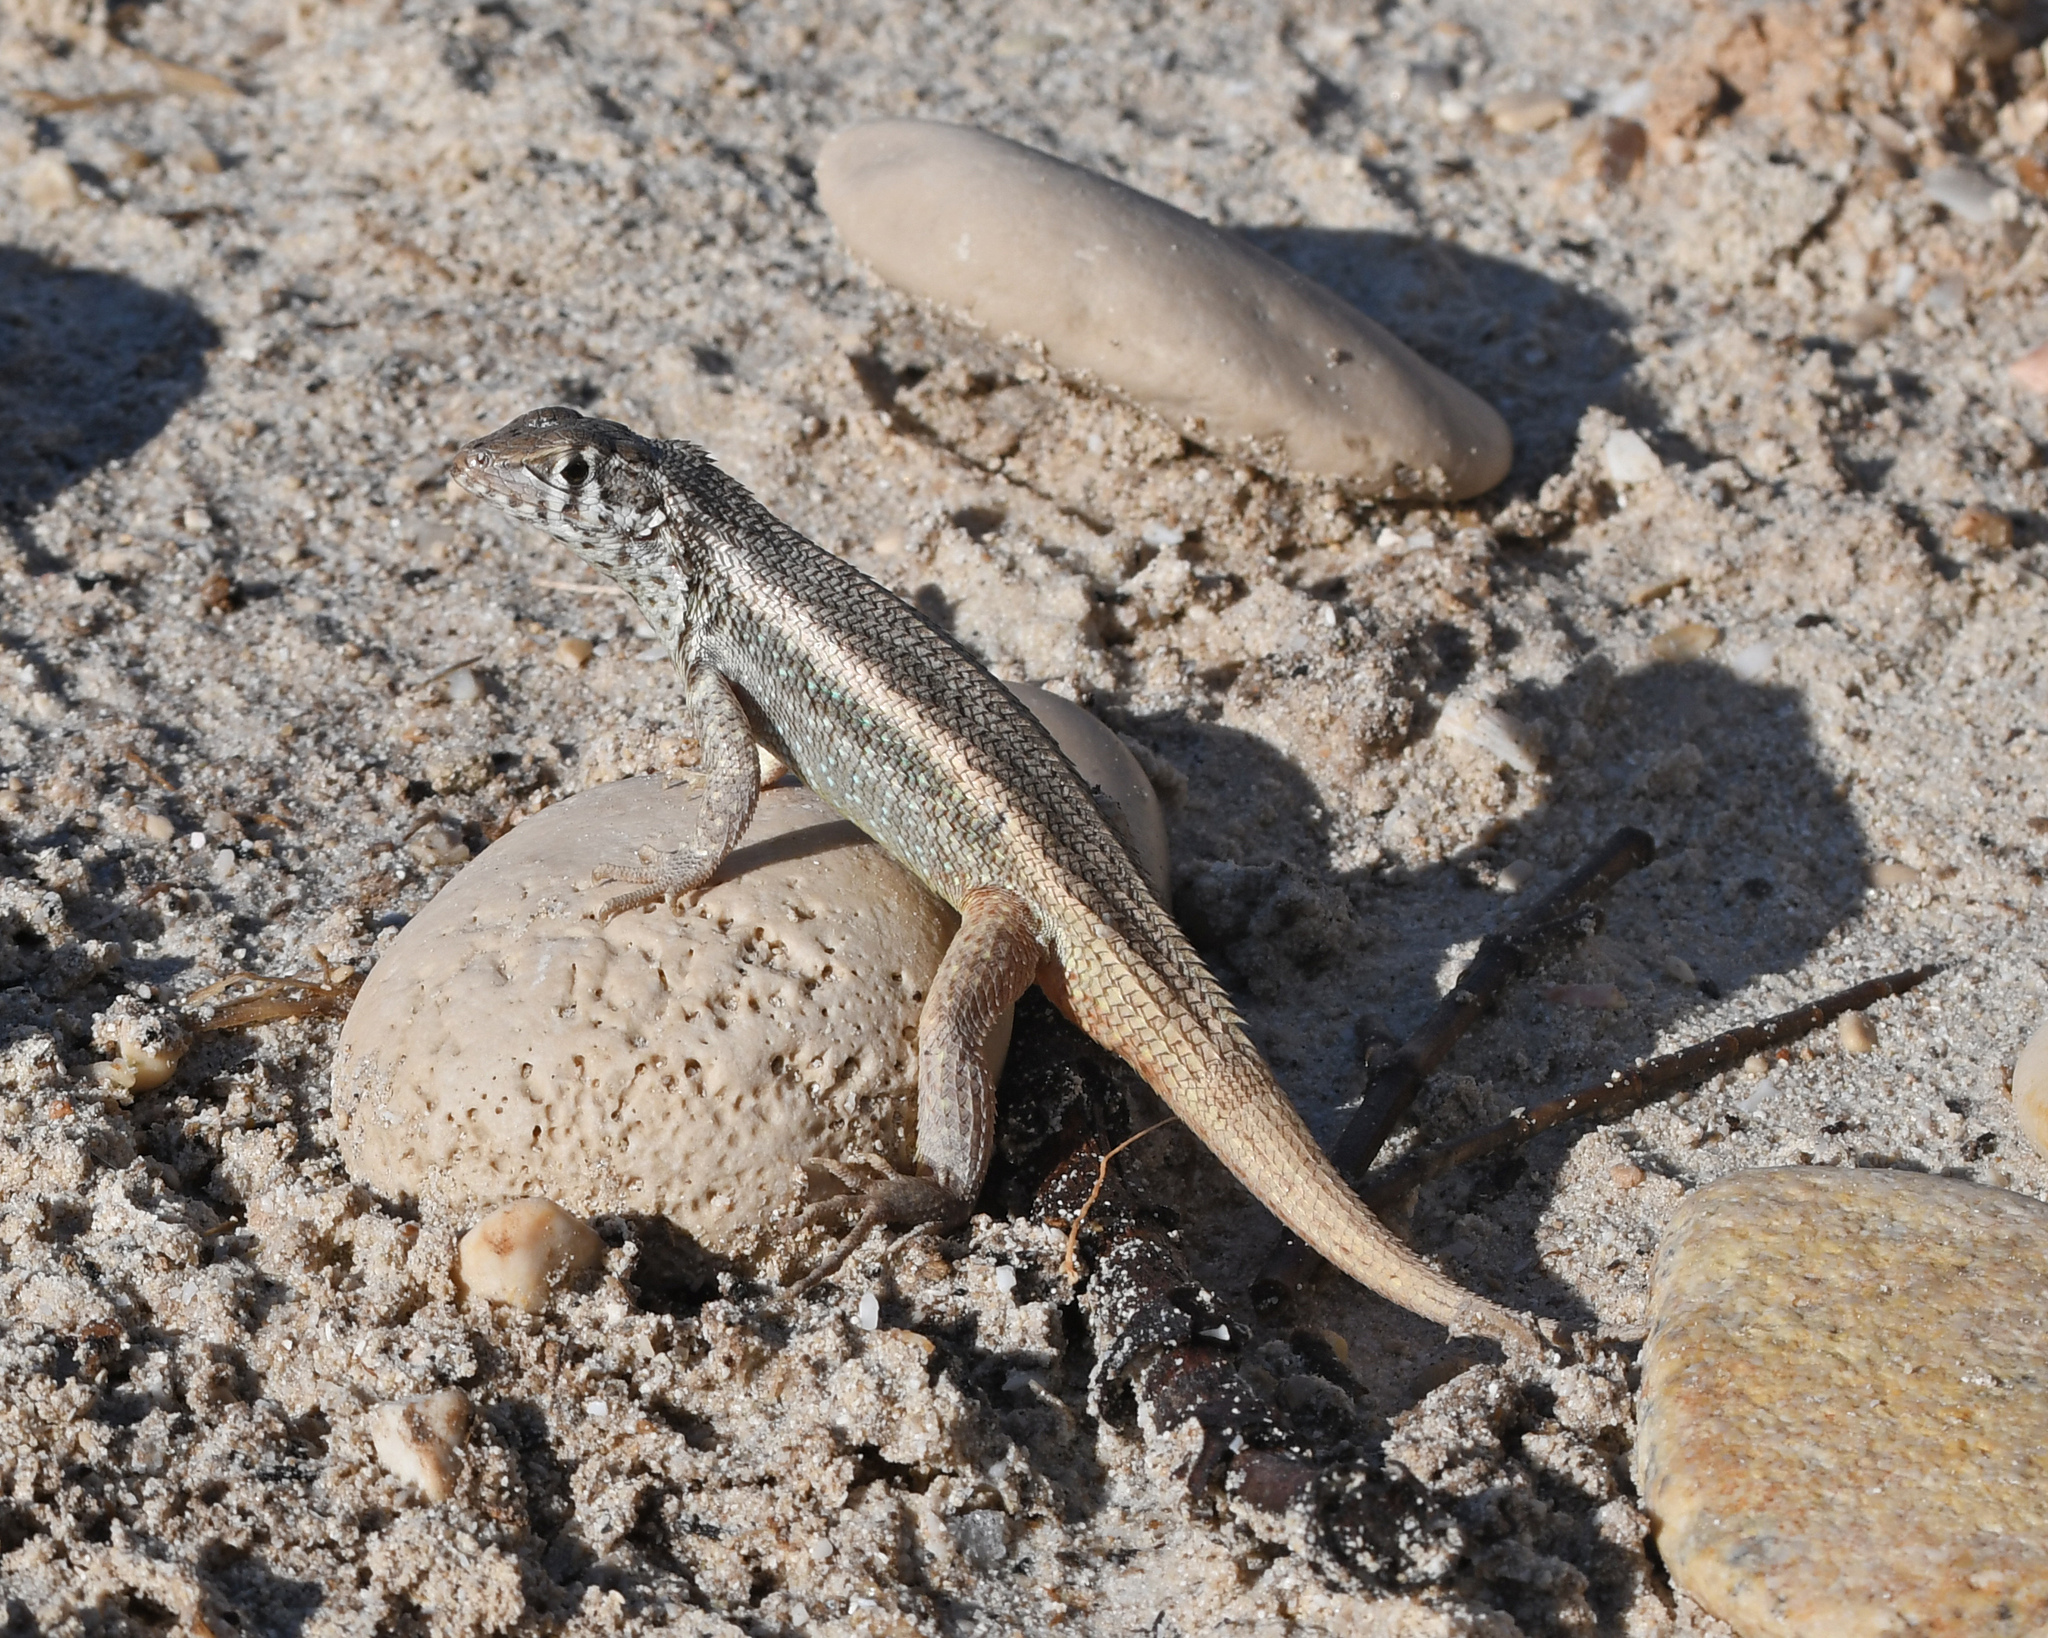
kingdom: Animalia
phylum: Chordata
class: Squamata
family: Leiocephalidae
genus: Leiocephalus
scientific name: Leiocephalus barahonensis
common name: Barahona curlytail lizard
